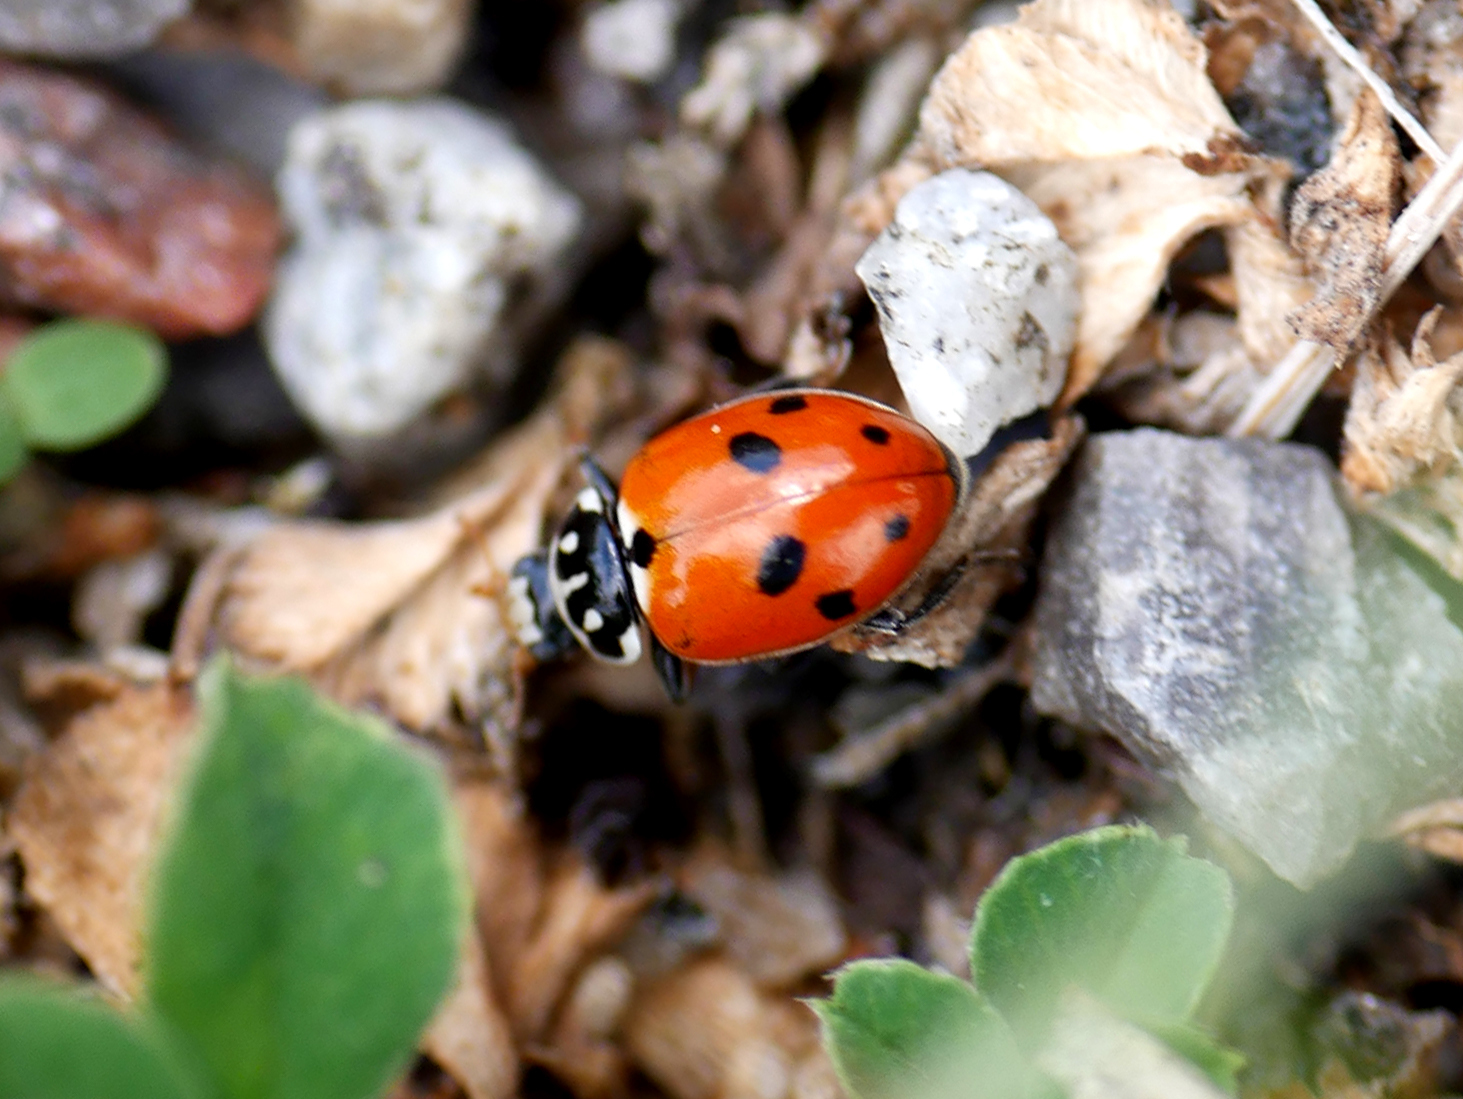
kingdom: Animalia
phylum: Arthropoda
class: Insecta
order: Coleoptera
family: Coccinellidae
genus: Hippodamia
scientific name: Hippodamia variegata
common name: Ladybird beetle
